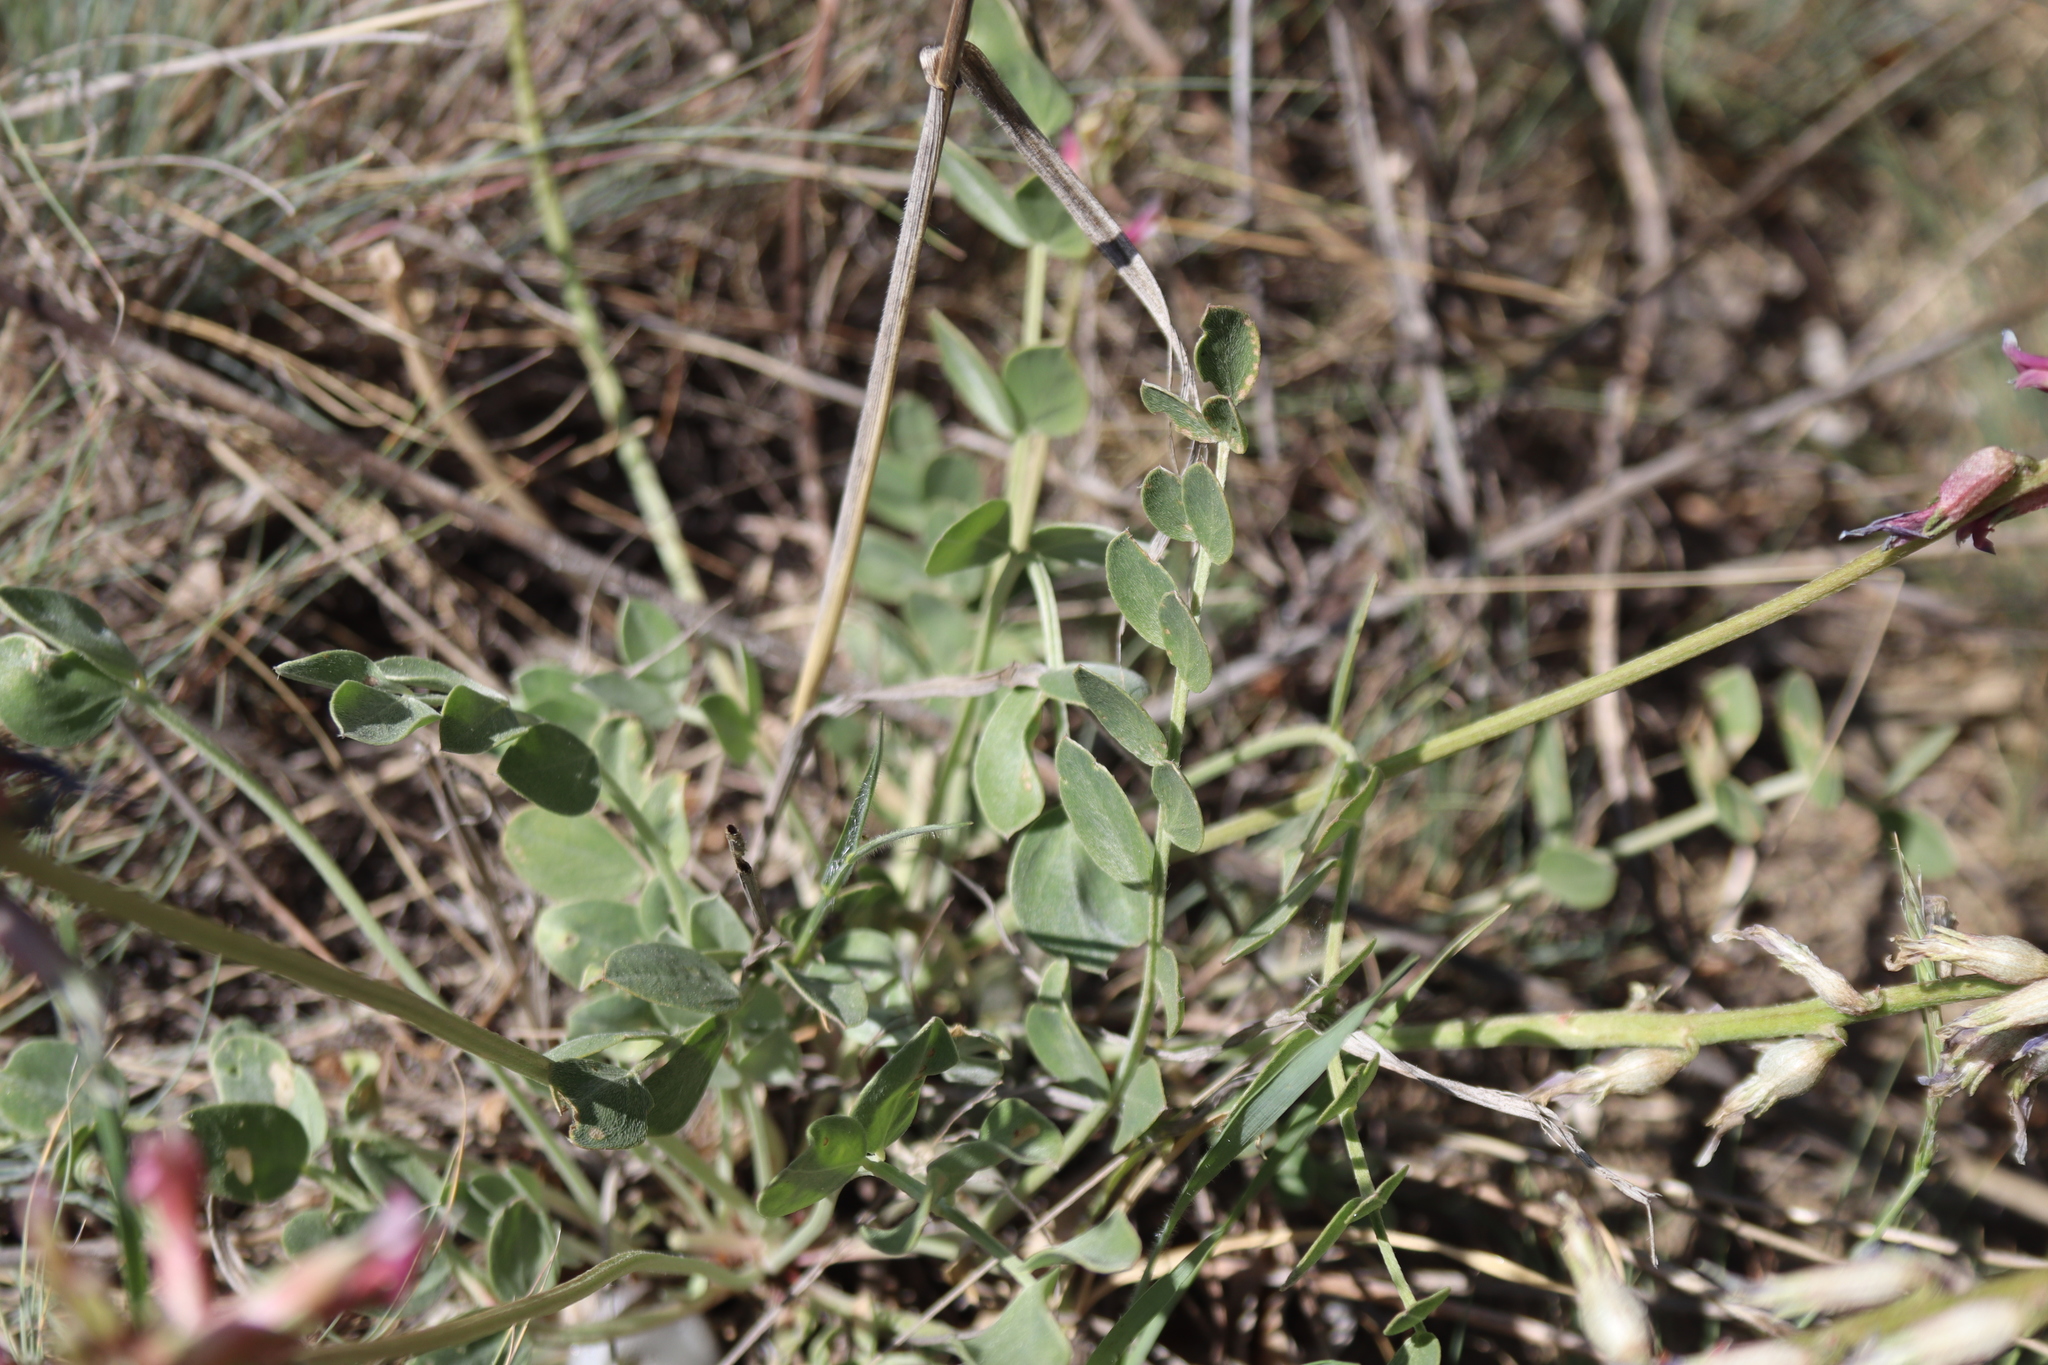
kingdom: Plantae
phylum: Tracheophyta
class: Magnoliopsida
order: Fabales
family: Fabaceae
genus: Astragalus
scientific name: Astragalus elongatus
